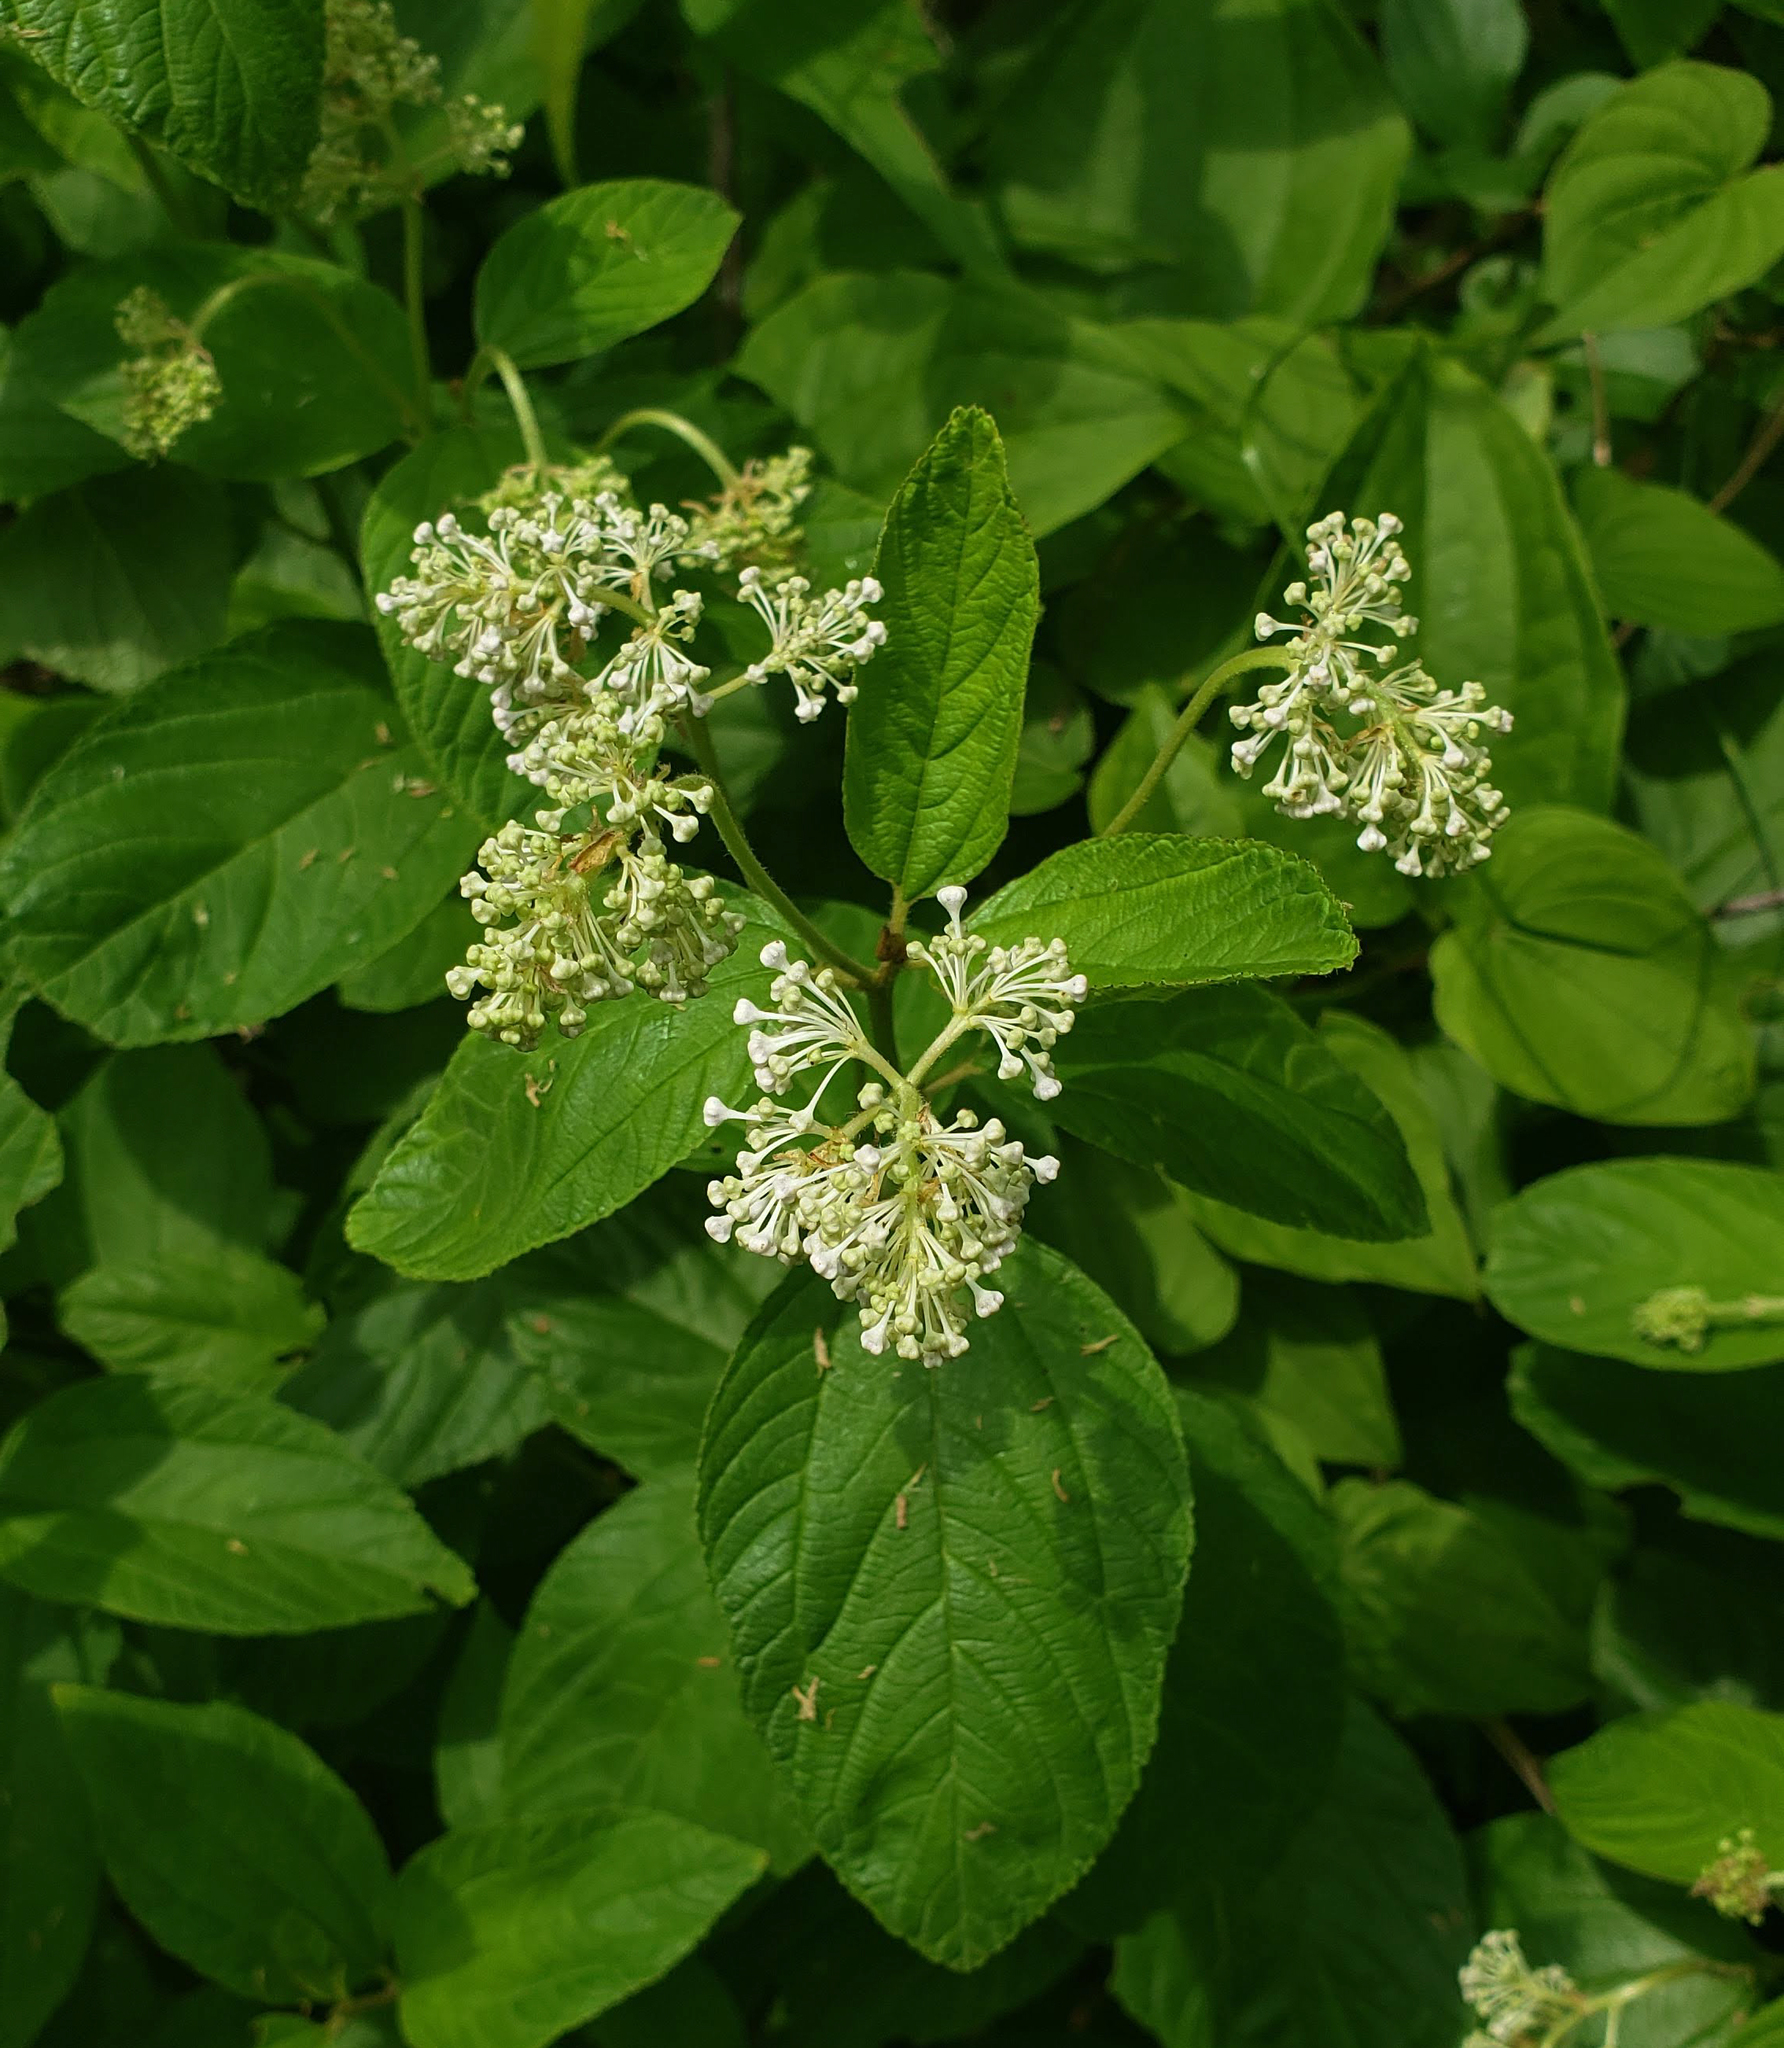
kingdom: Plantae
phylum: Tracheophyta
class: Magnoliopsida
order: Rosales
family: Rhamnaceae
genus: Ceanothus
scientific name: Ceanothus americanus
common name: Redroot
